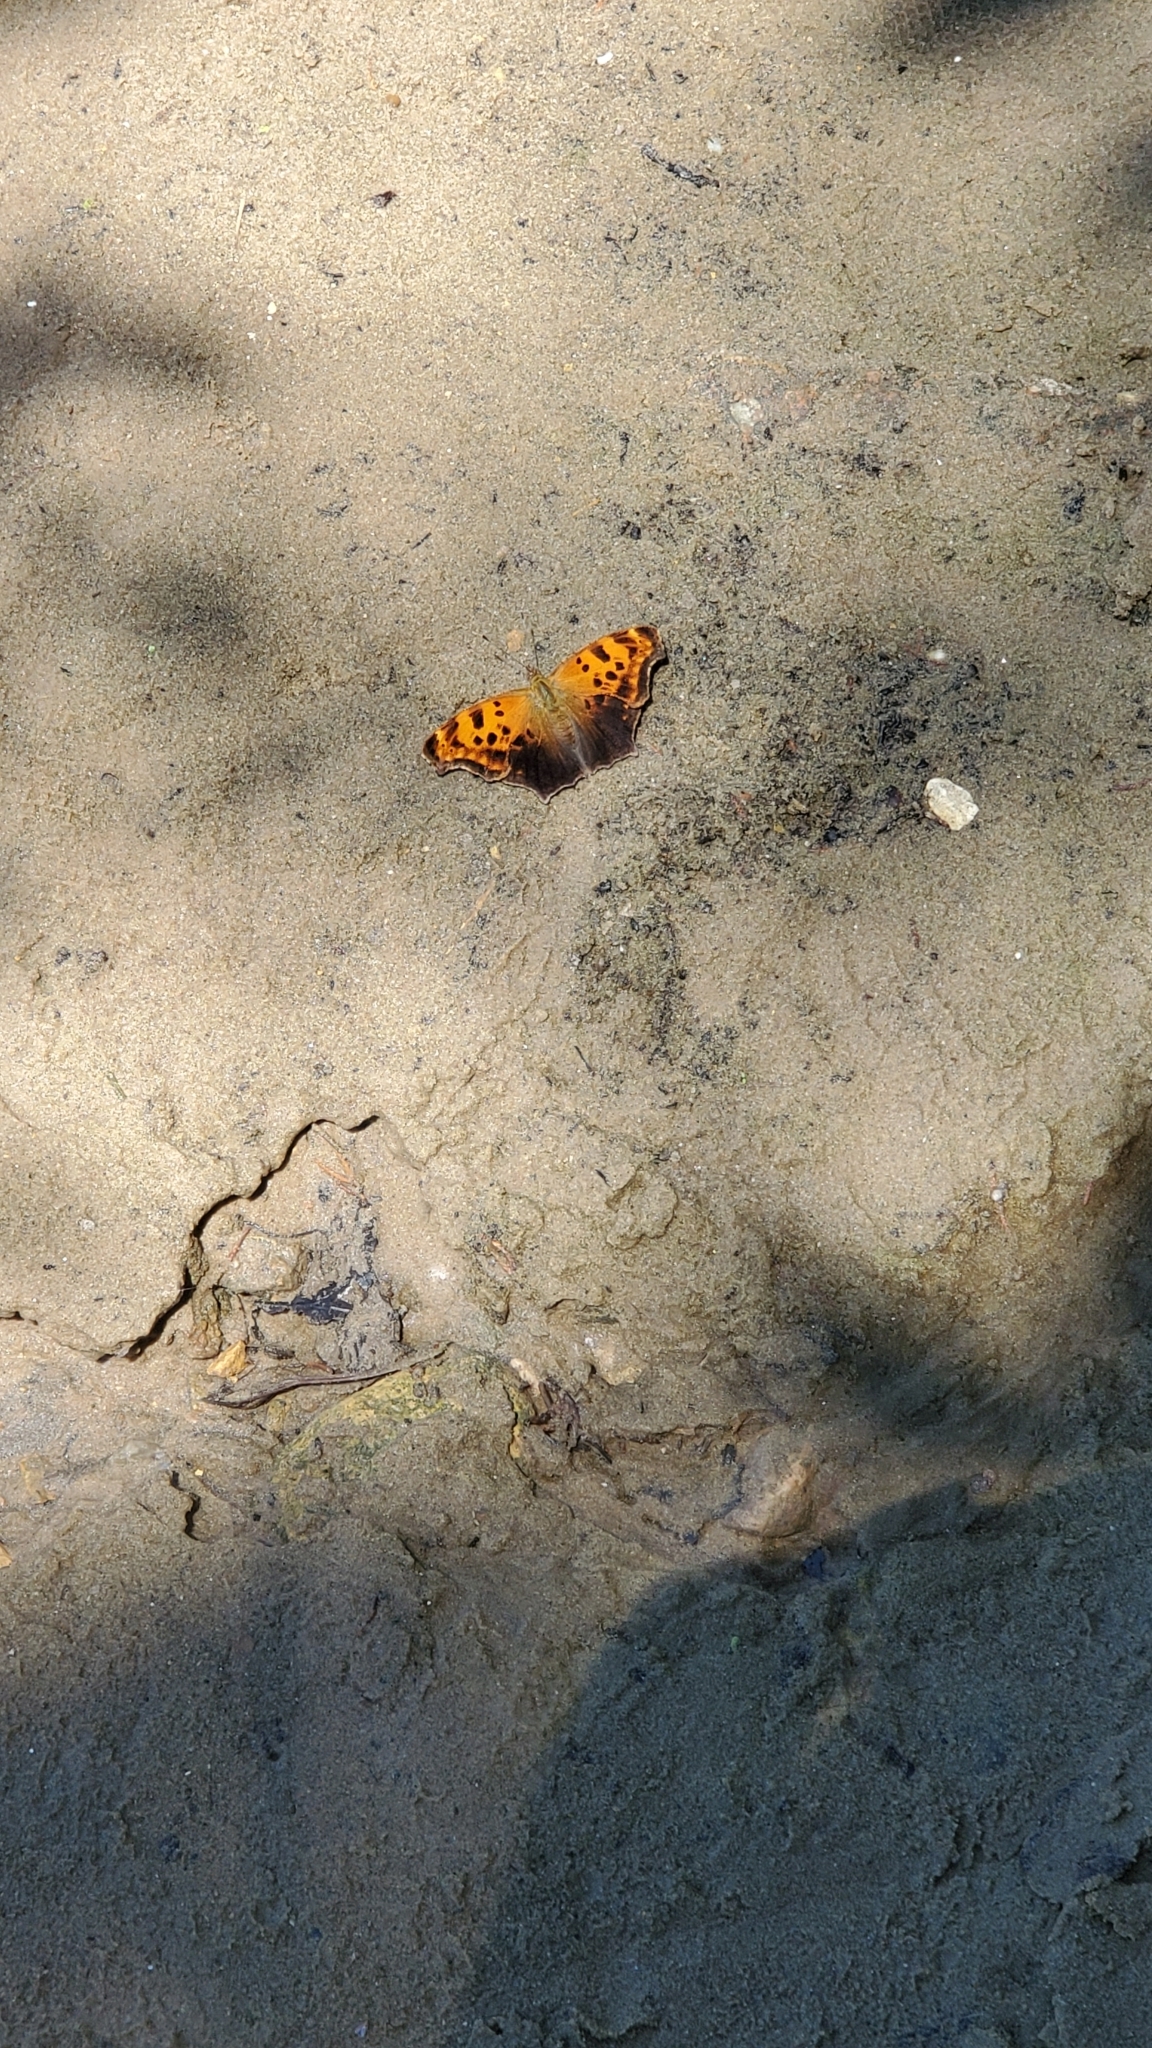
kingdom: Animalia
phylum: Arthropoda
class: Insecta
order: Lepidoptera
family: Nymphalidae
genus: Polygonia
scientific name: Polygonia comma
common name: Eastern comma
